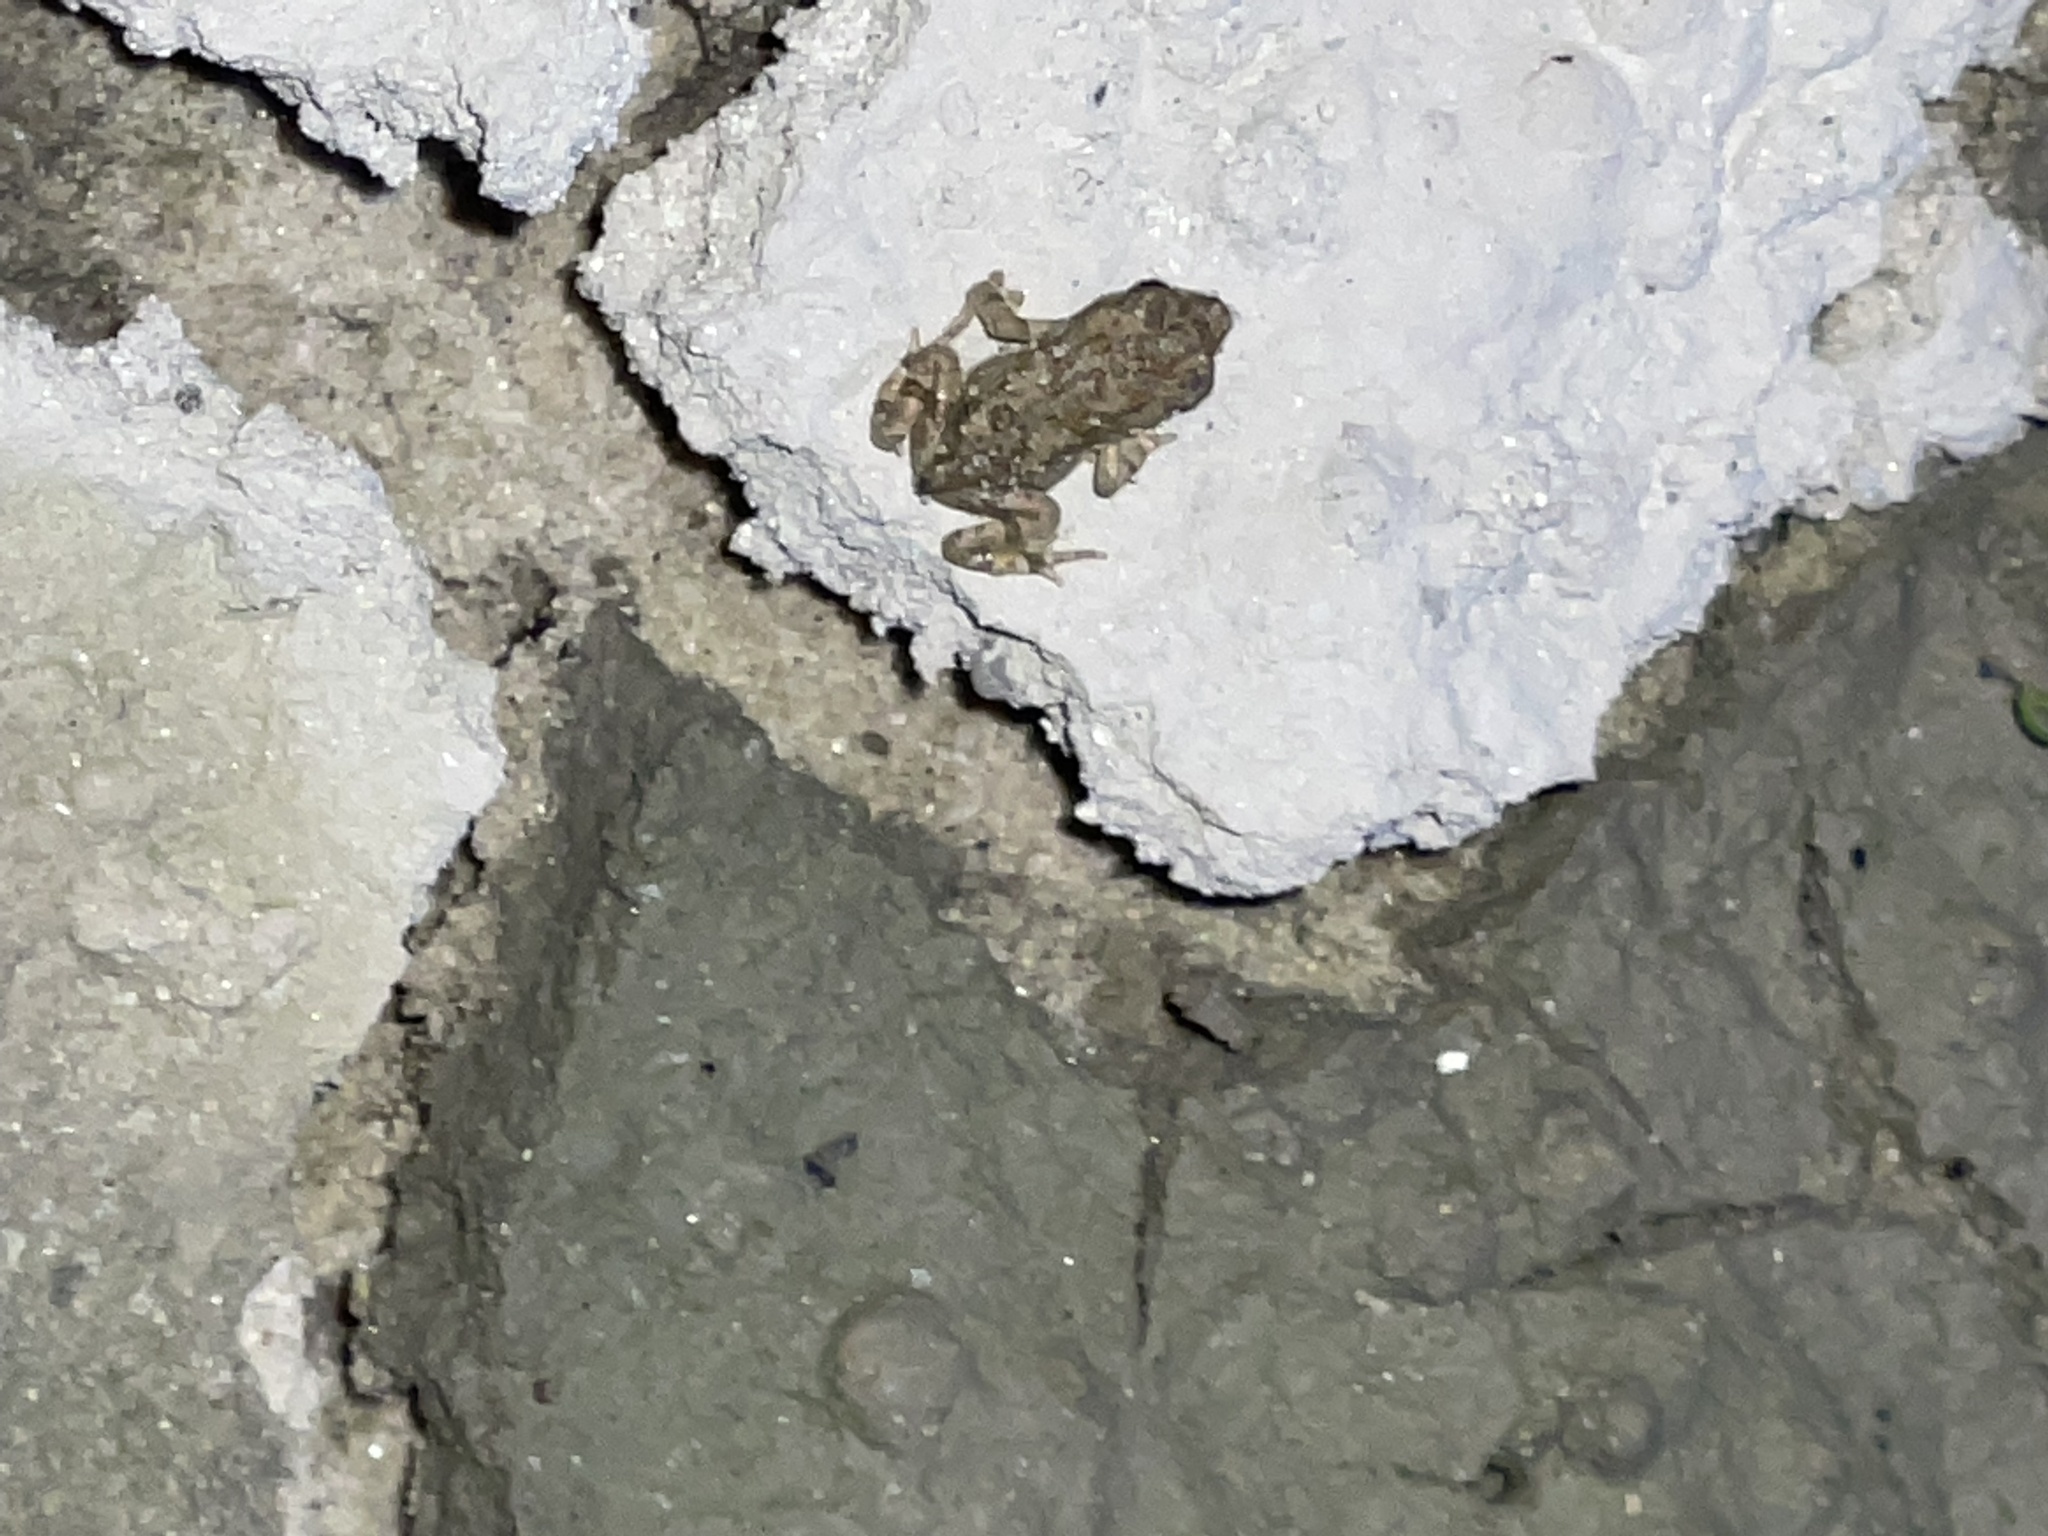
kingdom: Animalia
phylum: Chordata
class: Amphibia
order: Anura
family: Bufonidae
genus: Anaxyrus
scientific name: Anaxyrus fowleri
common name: Fowler's toad
